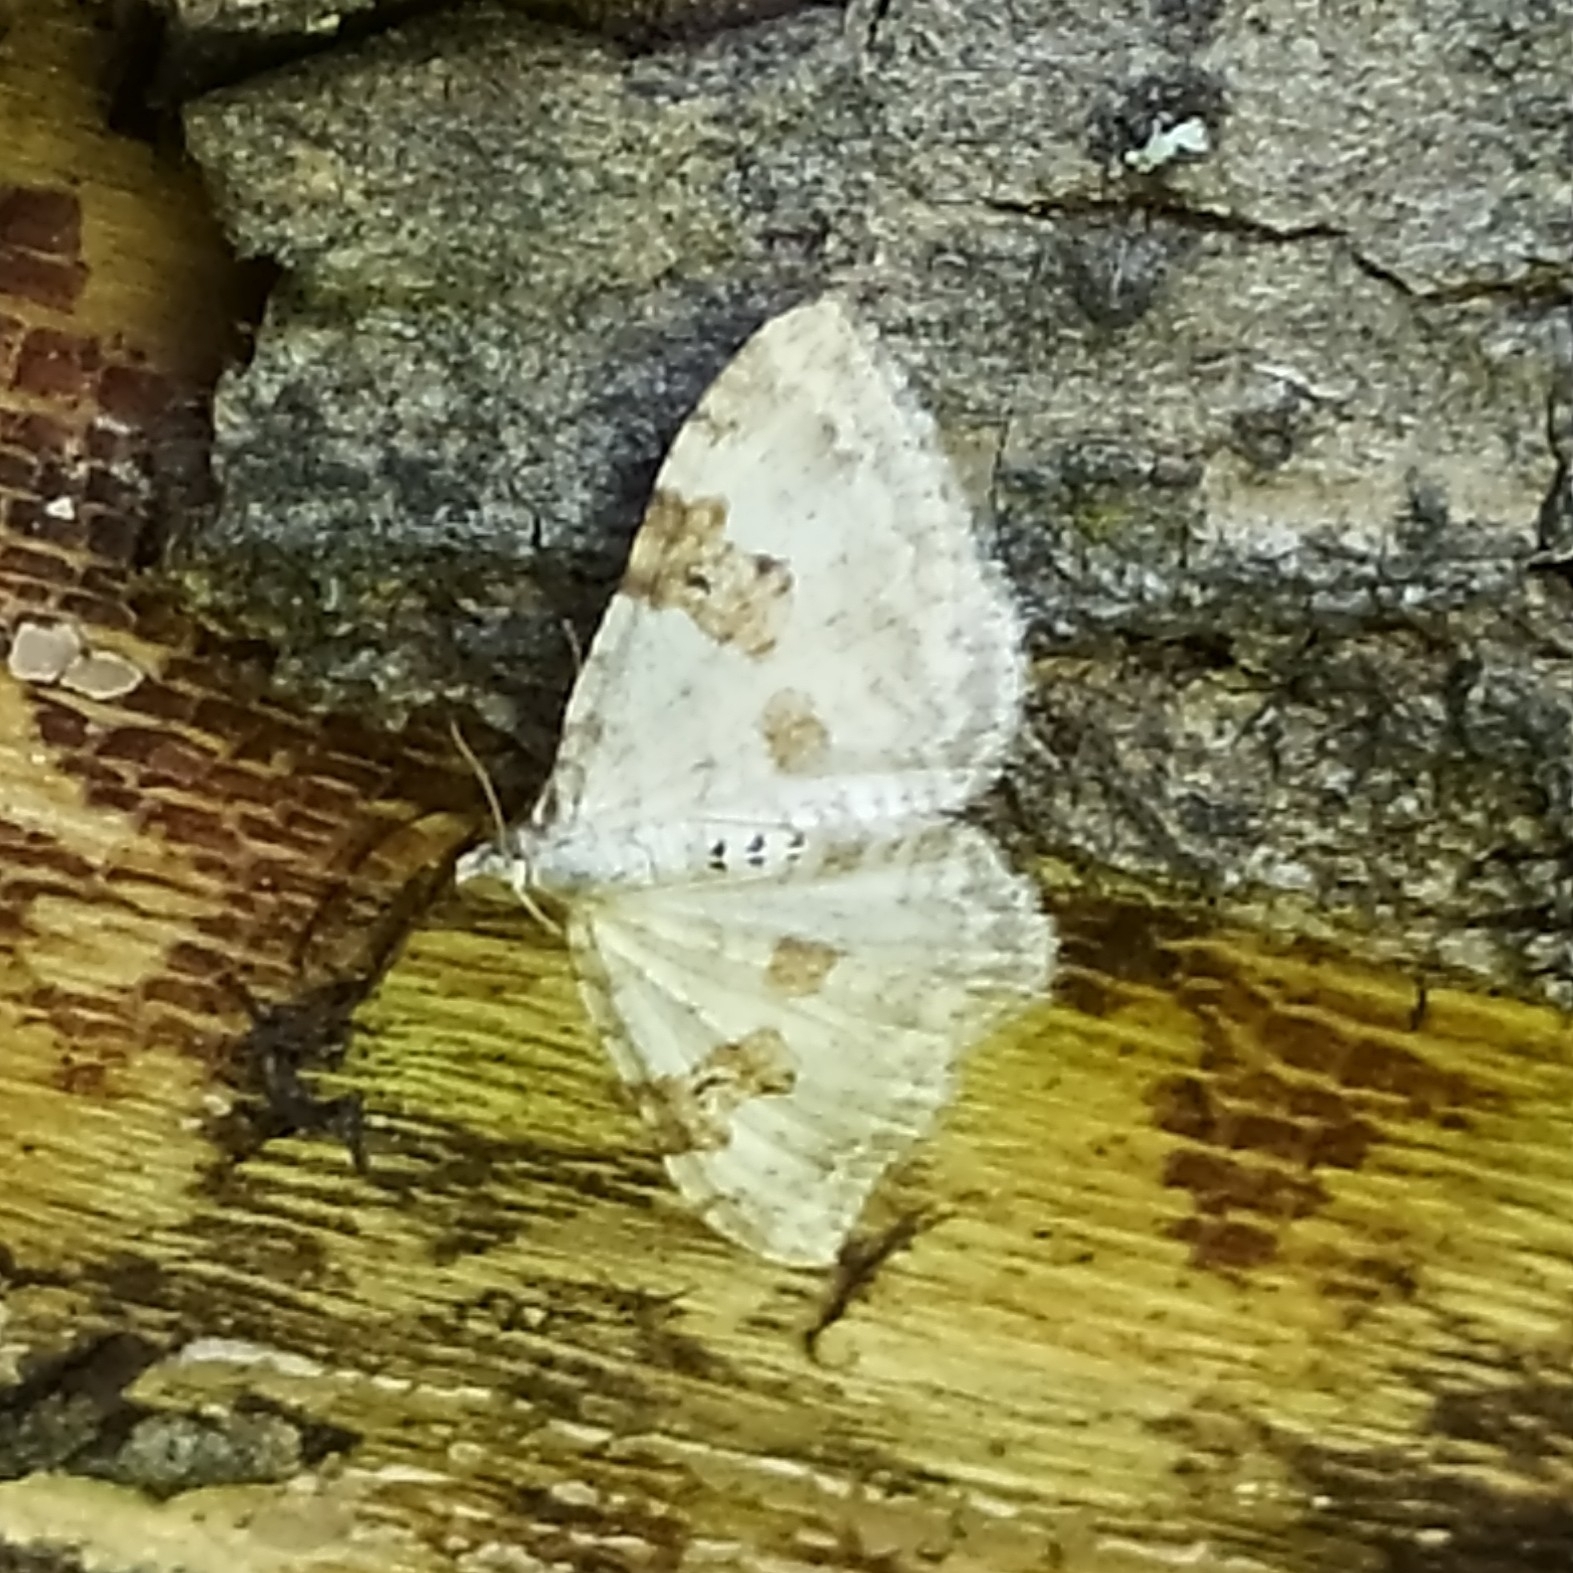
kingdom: Animalia
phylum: Arthropoda
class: Insecta
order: Lepidoptera
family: Geometridae
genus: Xanthorhoe
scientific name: Xanthorhoe montanata
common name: Silver-ground carpet
